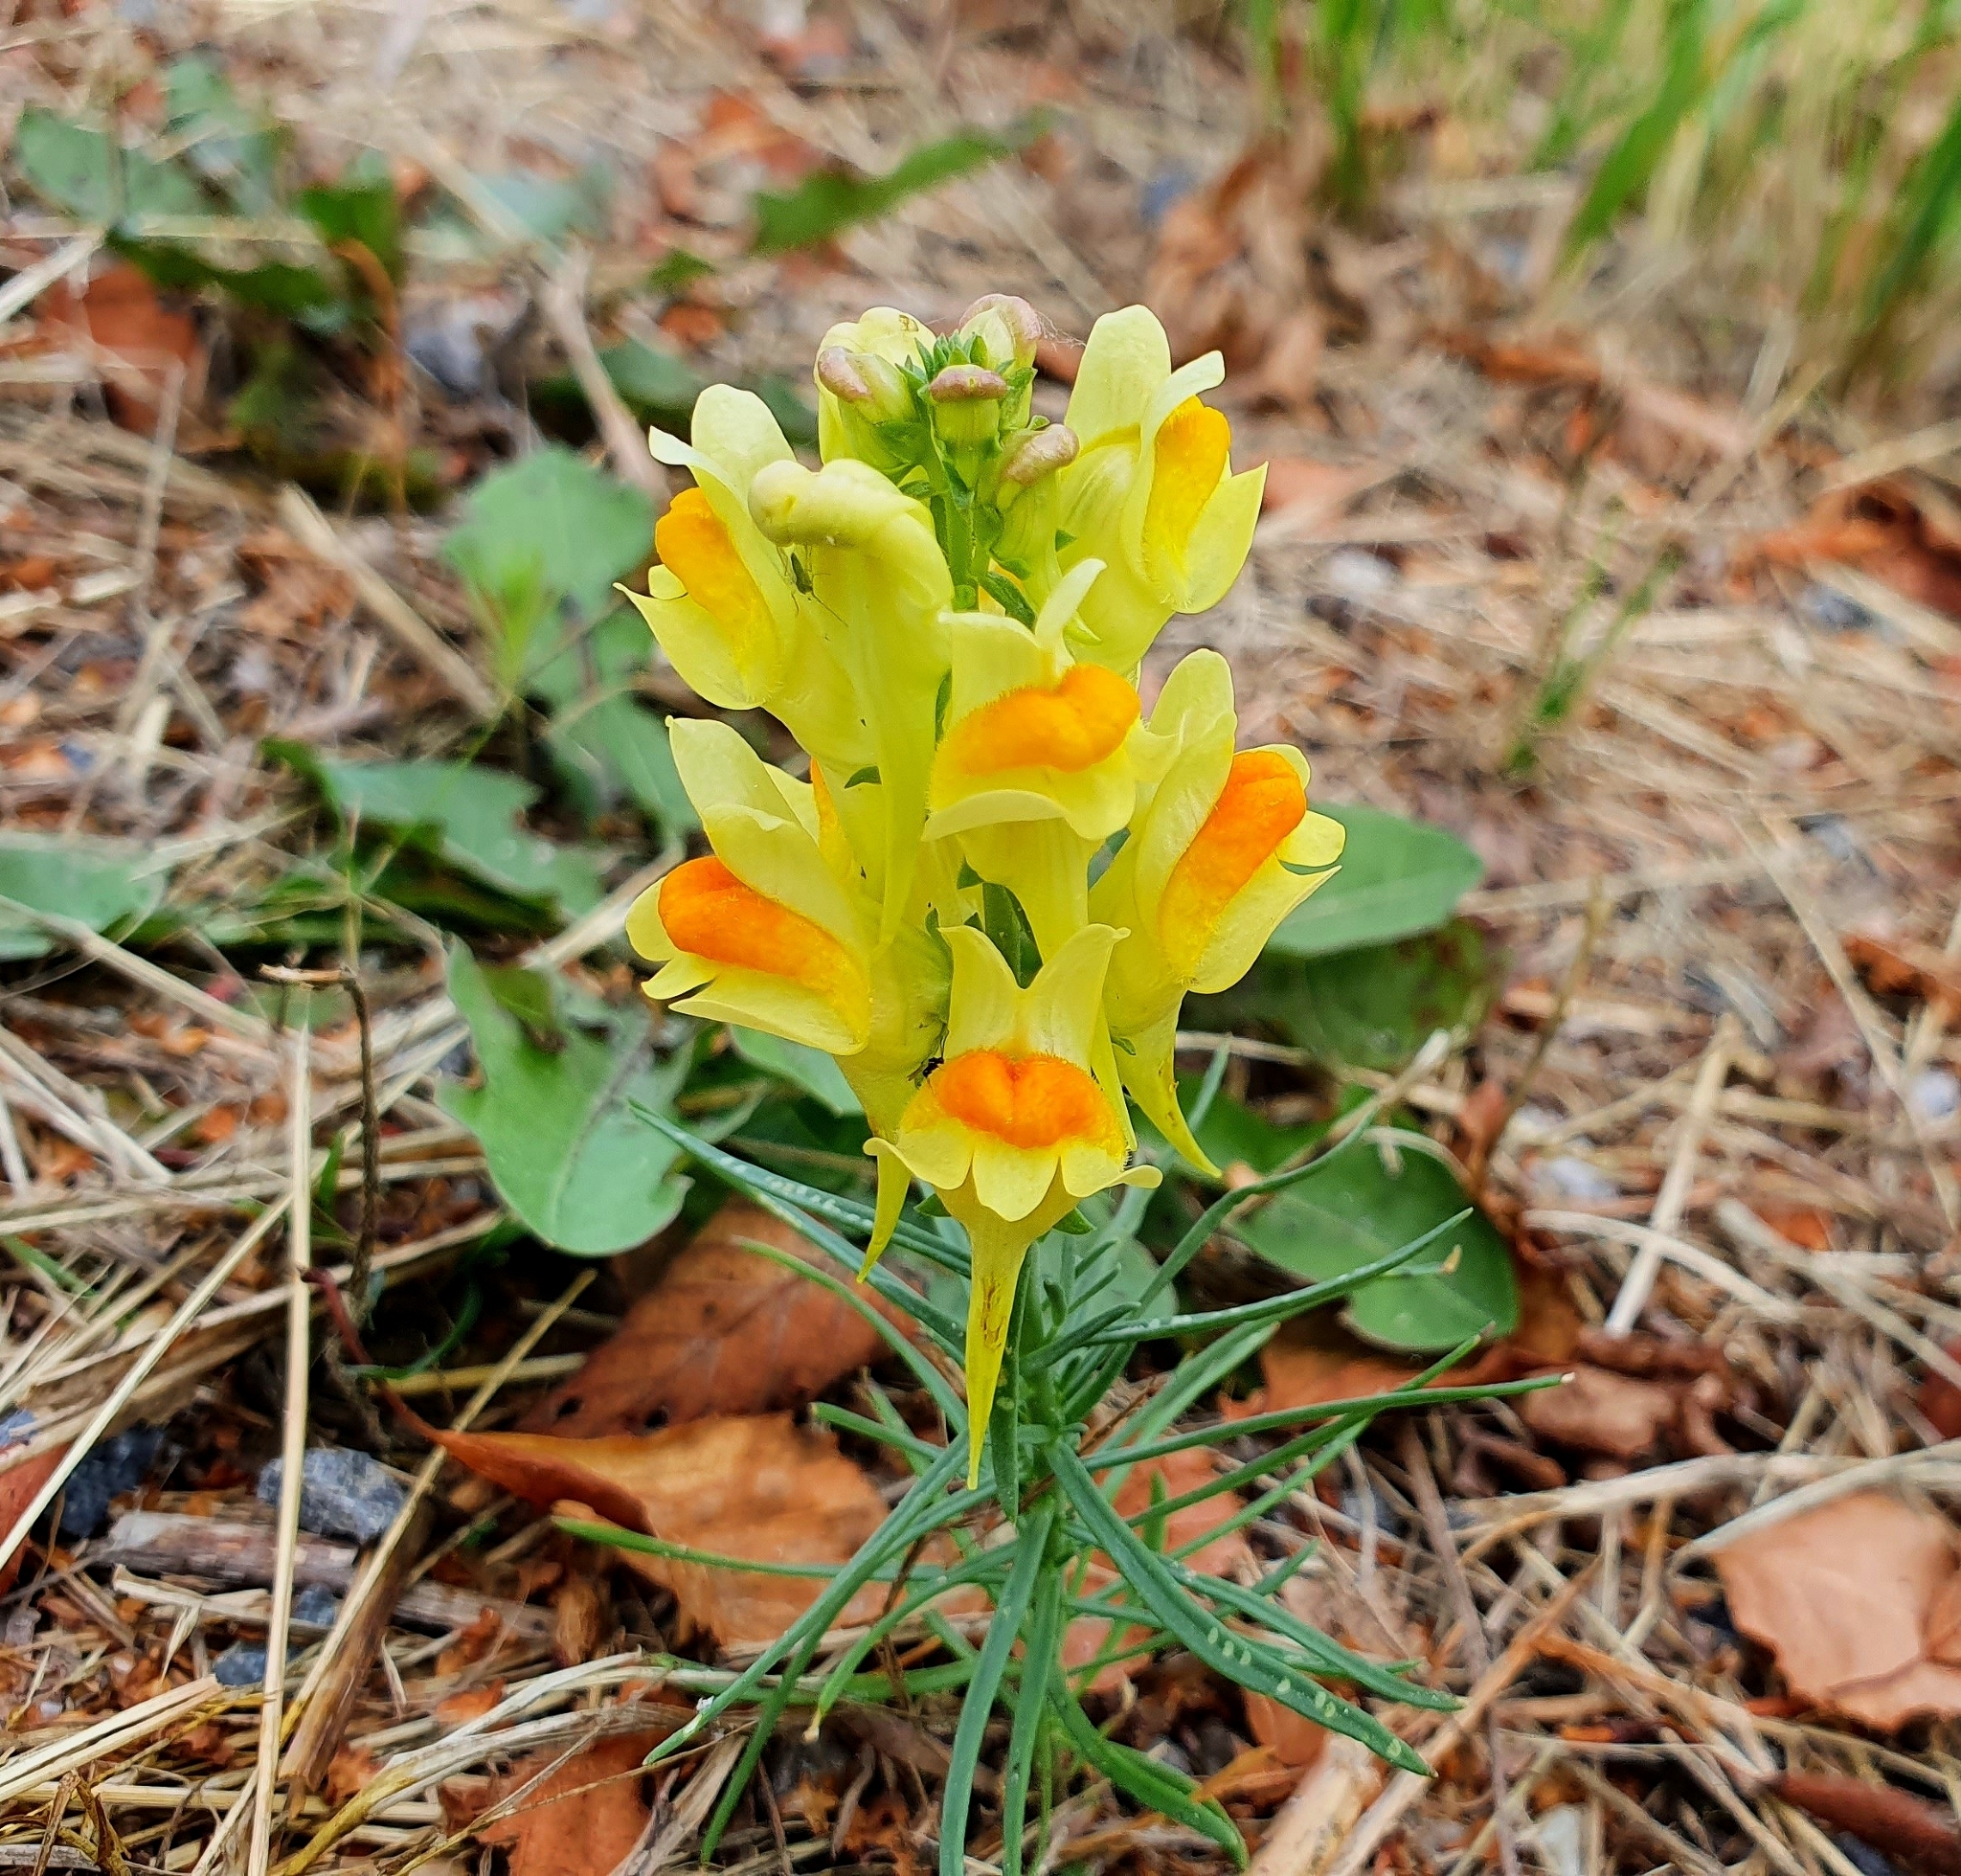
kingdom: Plantae
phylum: Tracheophyta
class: Magnoliopsida
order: Lamiales
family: Plantaginaceae
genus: Linaria
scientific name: Linaria vulgaris
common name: Butter and eggs
